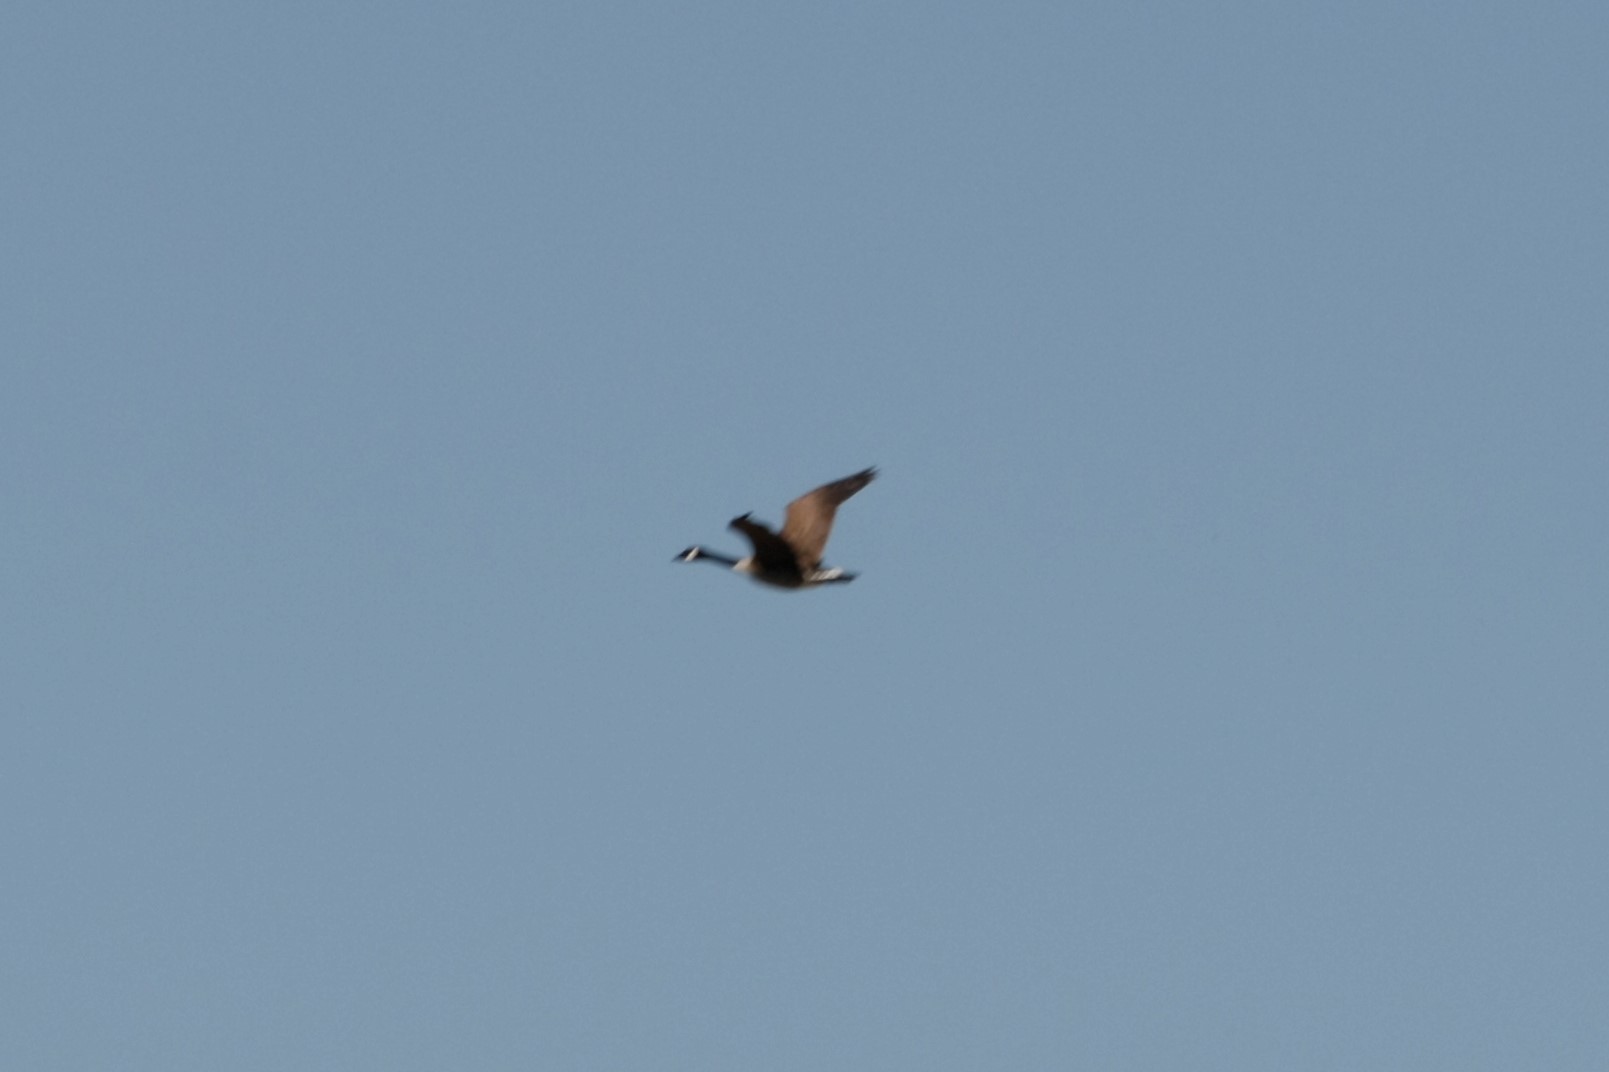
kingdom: Animalia
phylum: Chordata
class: Aves
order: Anseriformes
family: Anatidae
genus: Branta
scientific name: Branta canadensis
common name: Canada goose
